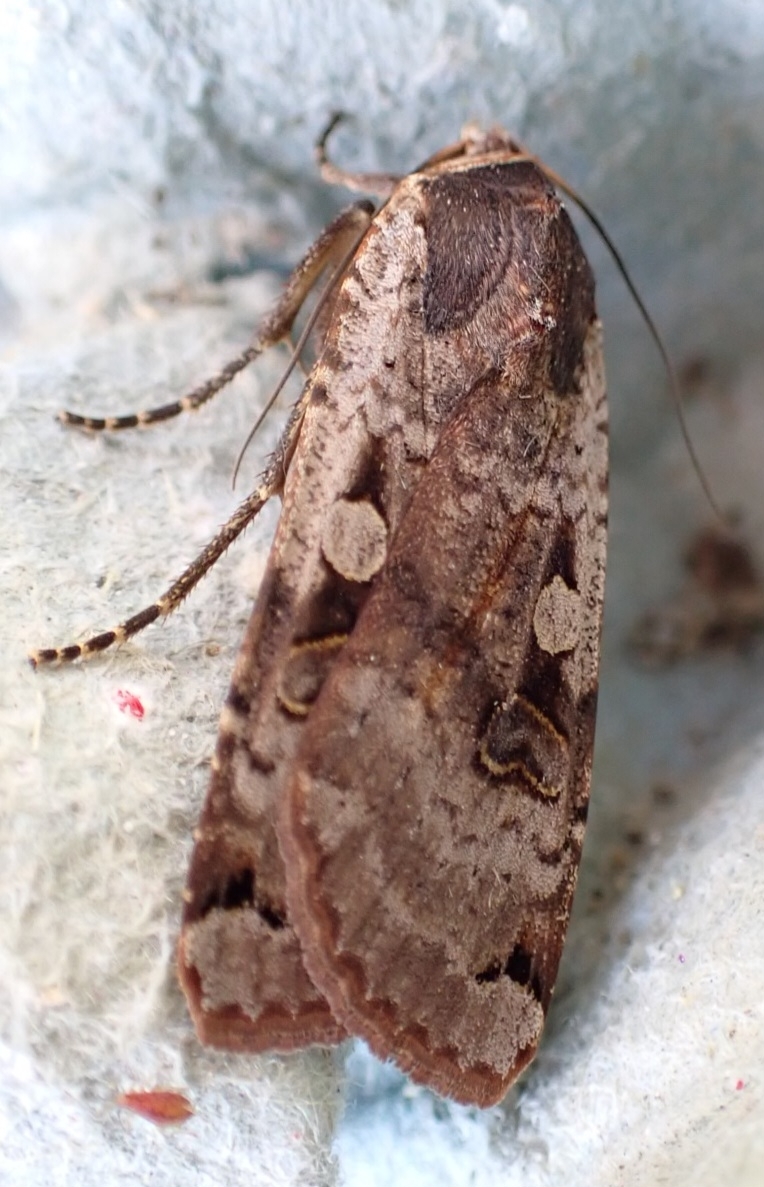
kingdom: Animalia
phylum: Arthropoda
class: Insecta
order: Lepidoptera
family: Noctuidae
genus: Noctua
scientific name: Noctua pronuba
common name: Large yellow underwing
